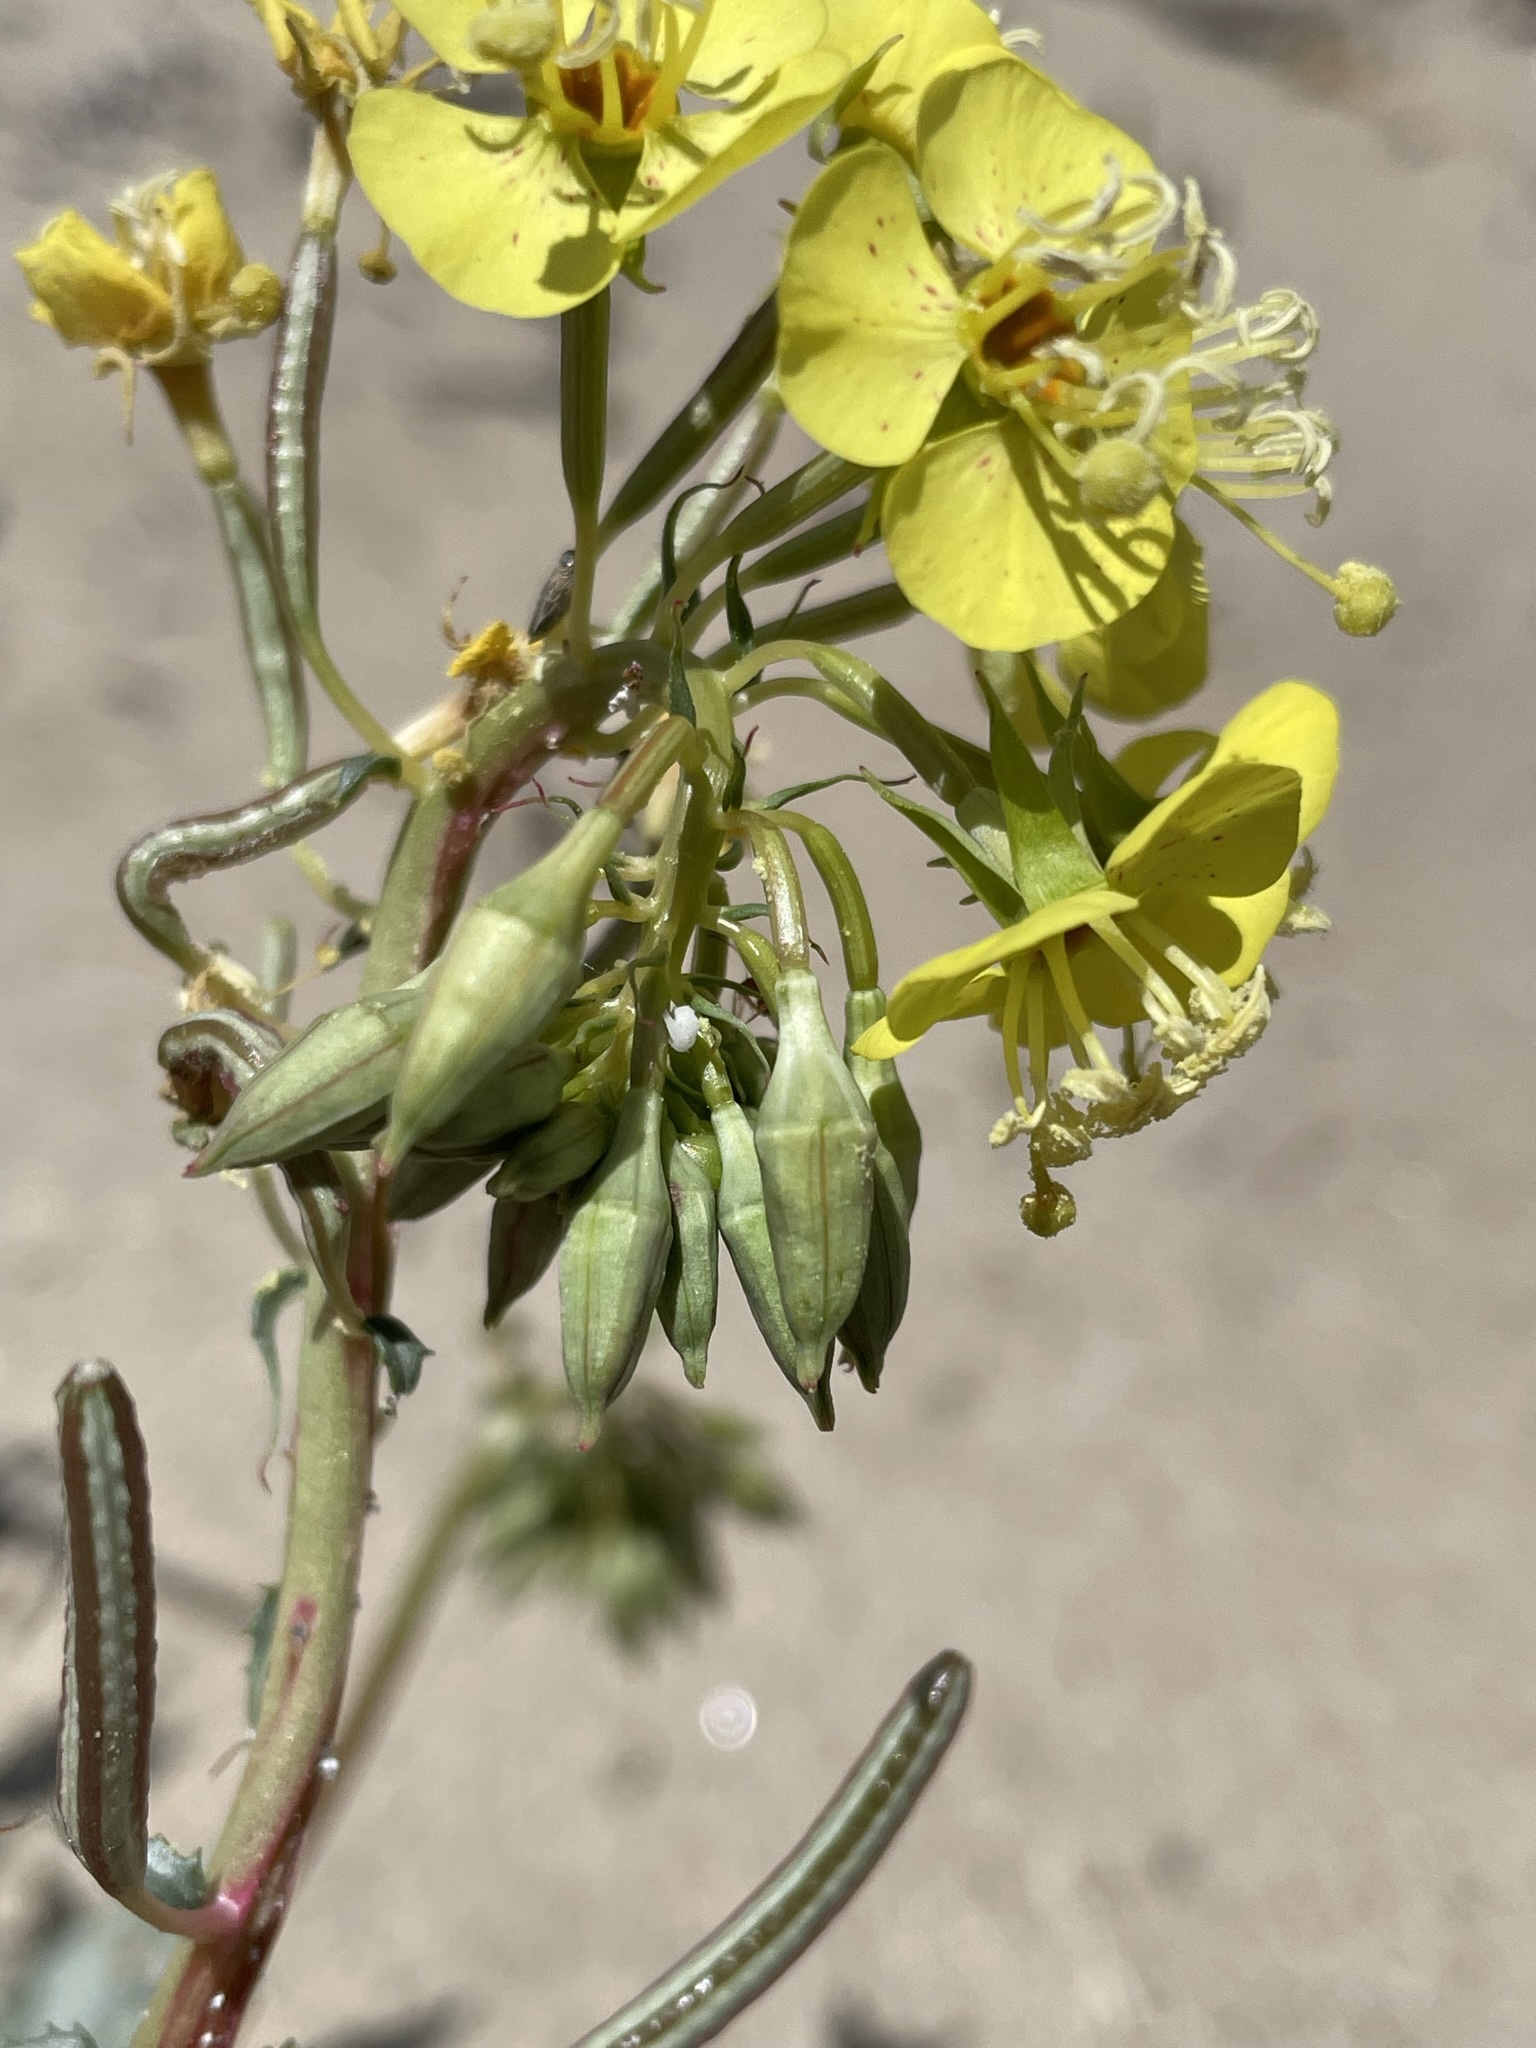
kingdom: Plantae
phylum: Tracheophyta
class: Magnoliopsida
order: Myrtales
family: Onagraceae
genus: Chylismia
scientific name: Chylismia claviformis
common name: Browneyes
